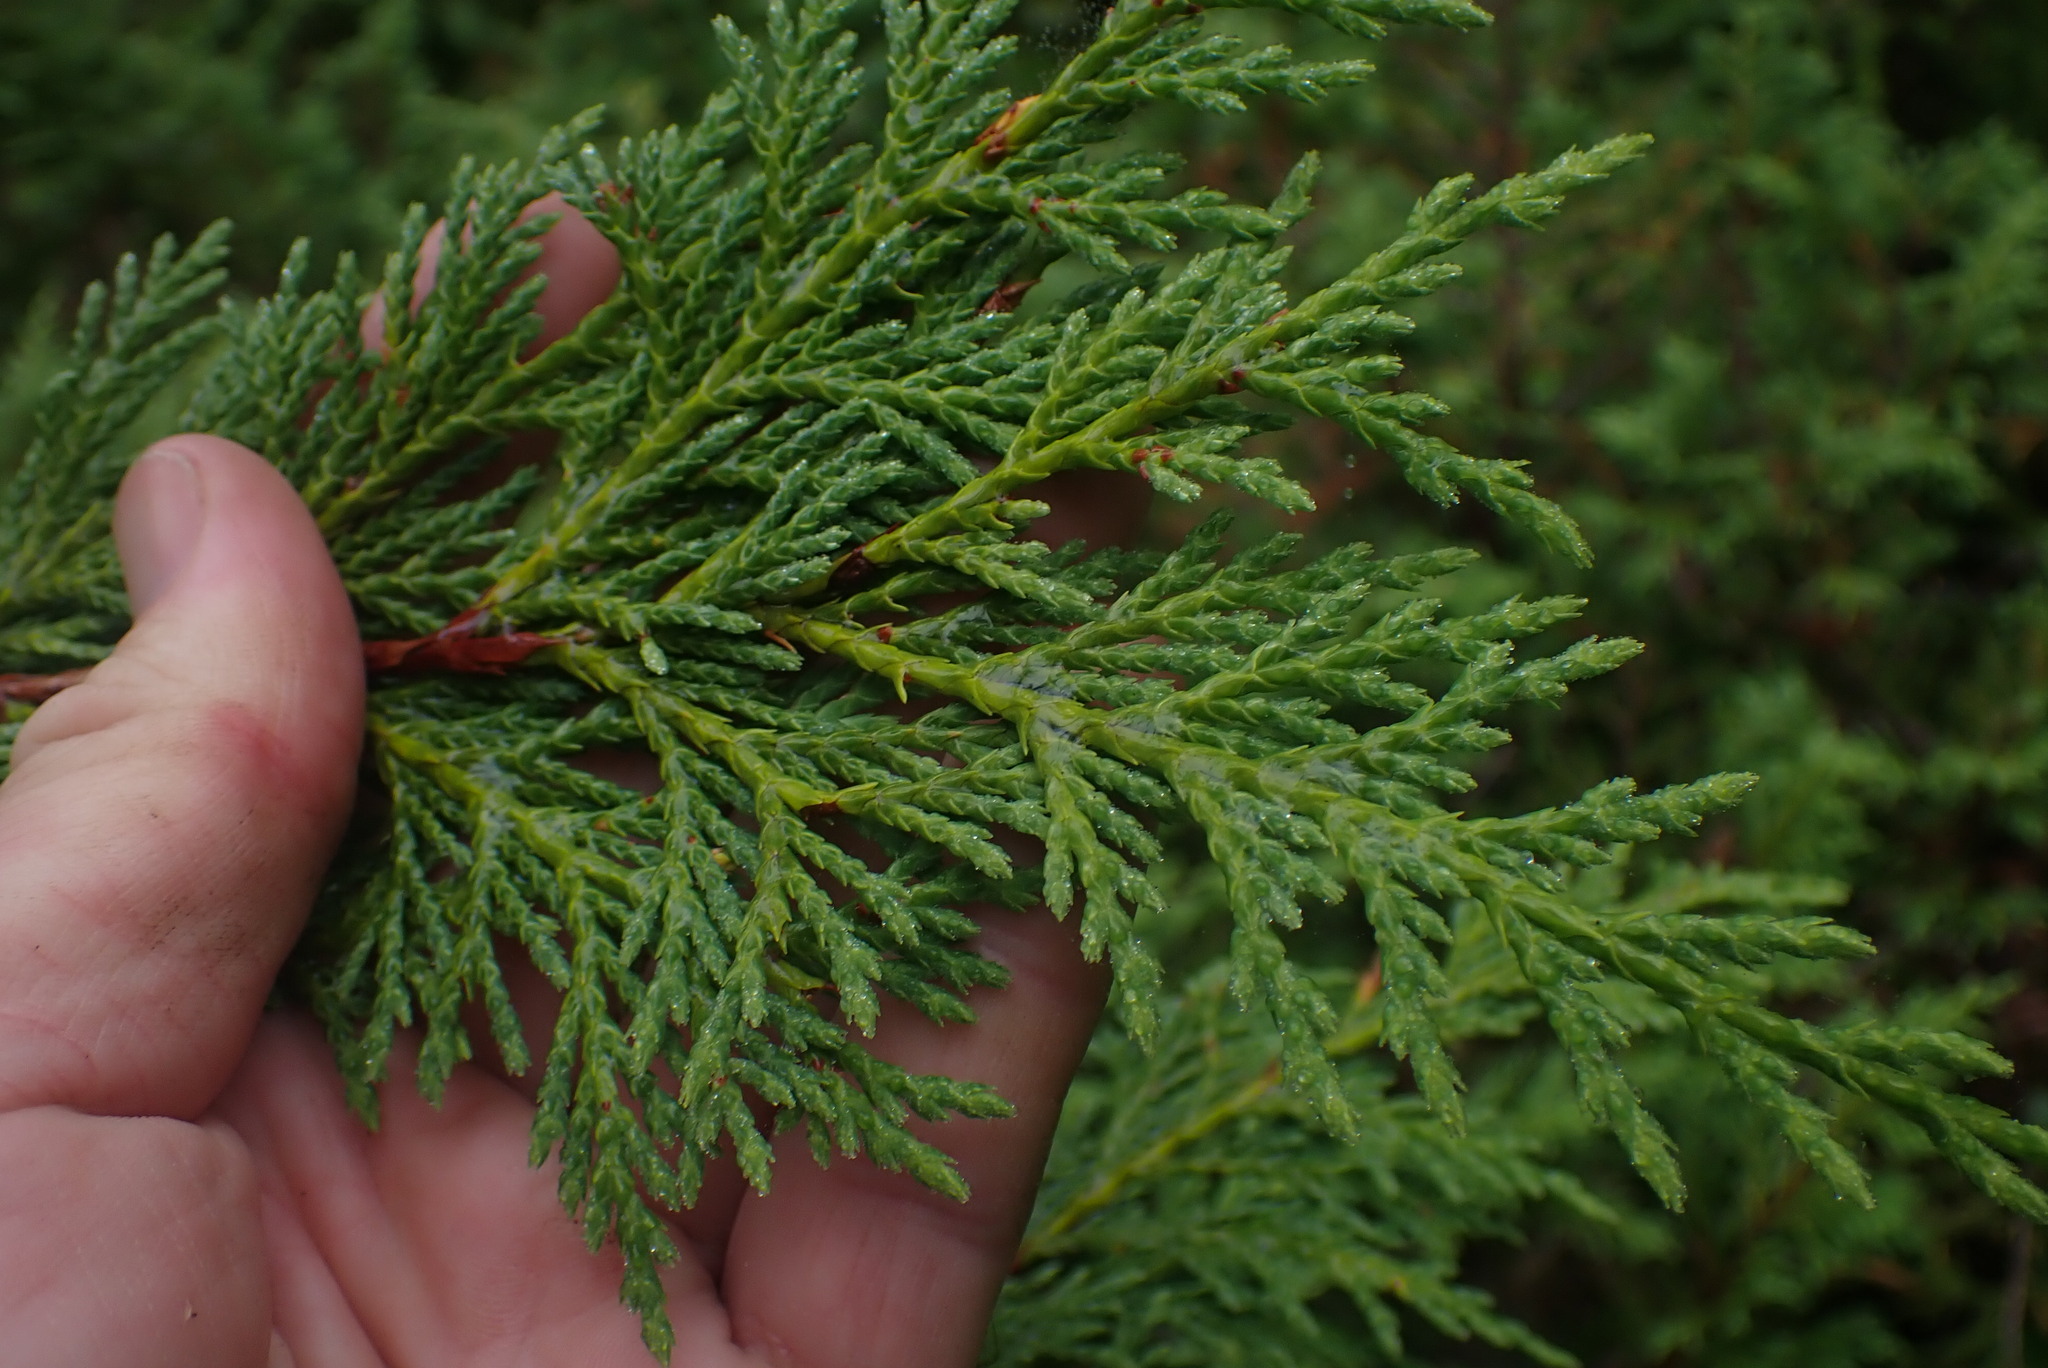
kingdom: Plantae
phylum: Tracheophyta
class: Pinopsida
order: Pinales
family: Cupressaceae
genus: Xanthocyparis
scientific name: Xanthocyparis nootkatensis
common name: Nootka cypress
